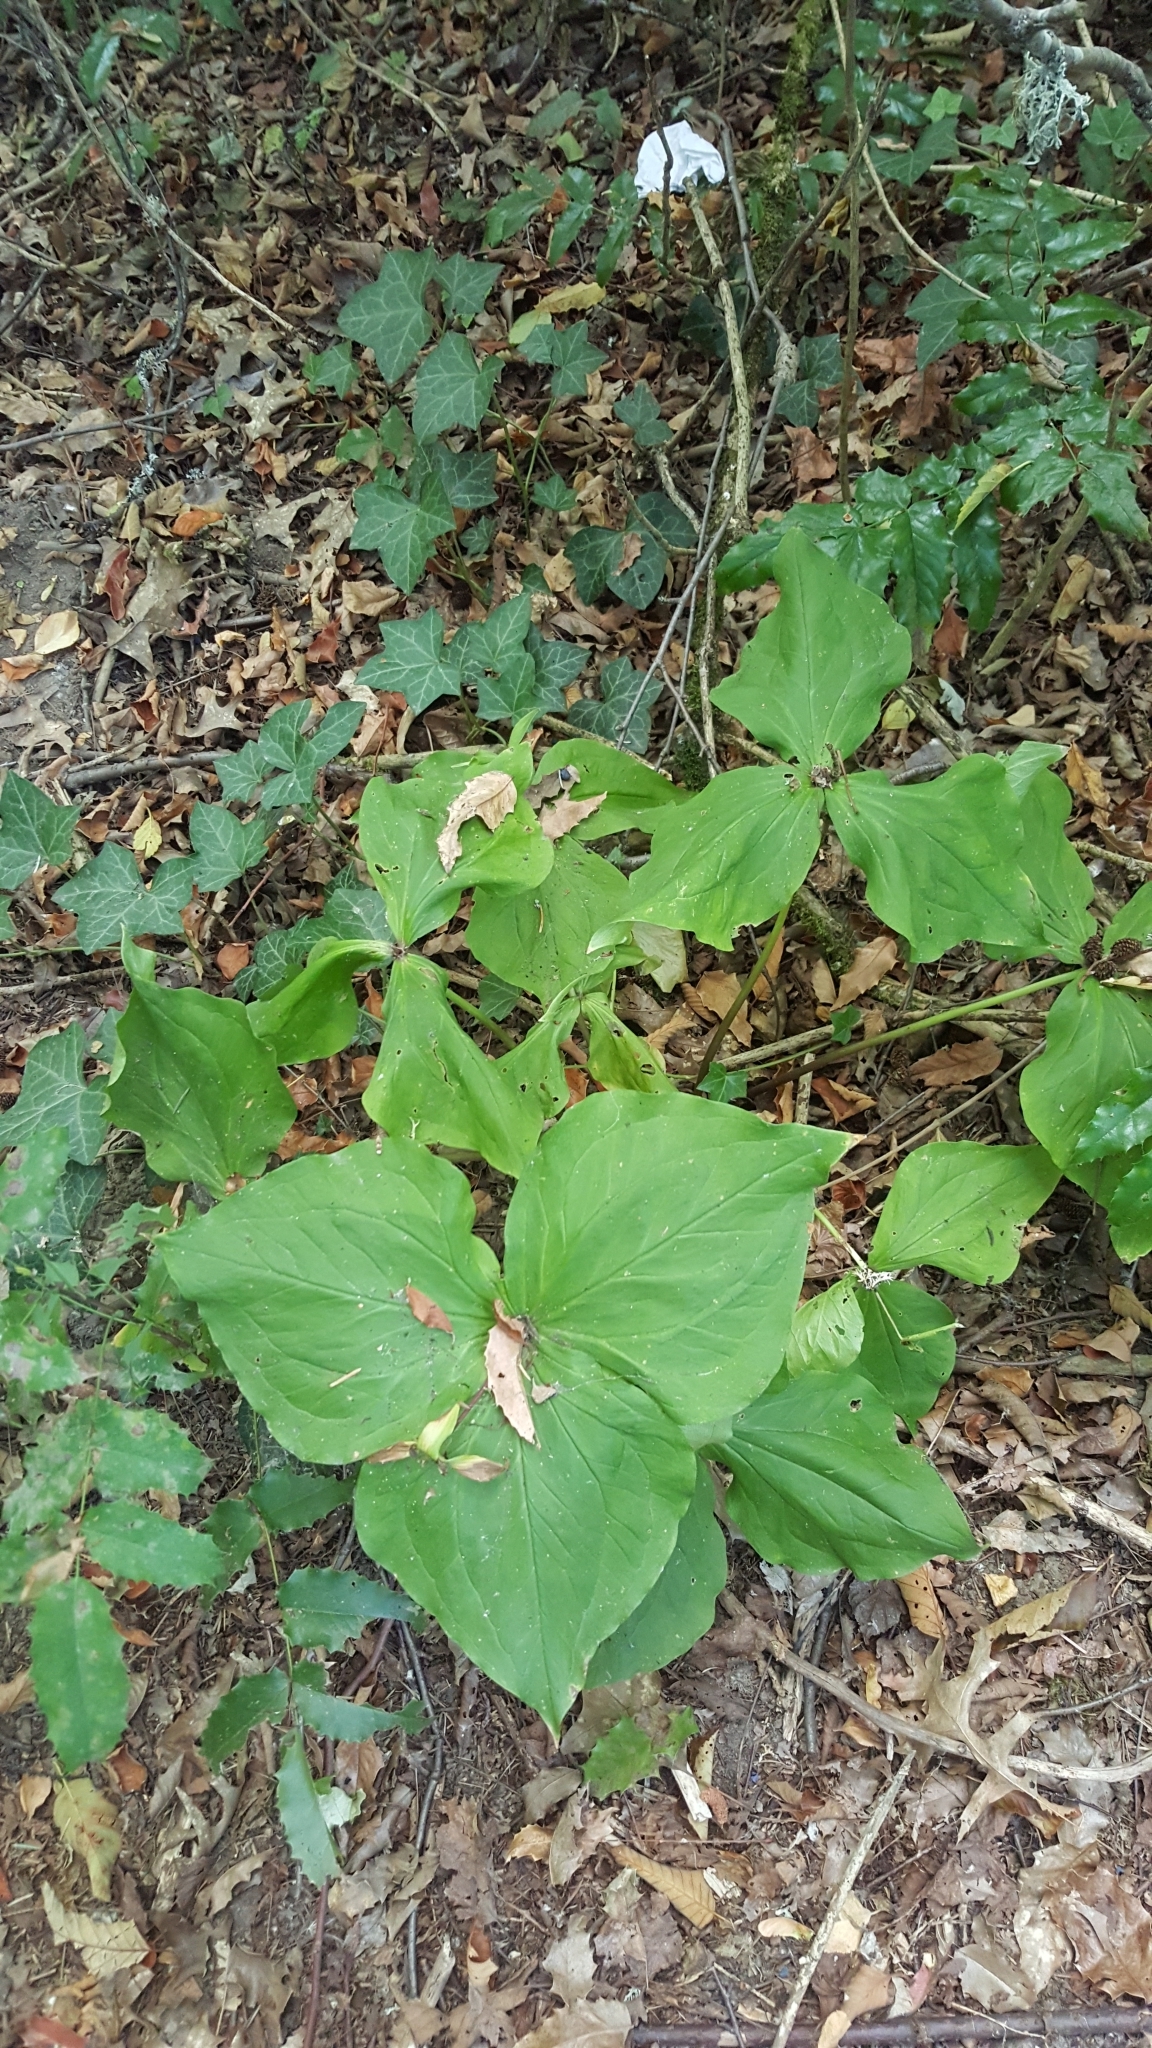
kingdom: Plantae
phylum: Tracheophyta
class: Liliopsida
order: Liliales
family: Melanthiaceae
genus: Trillium
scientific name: Trillium ovatum
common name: Pacific trillium
